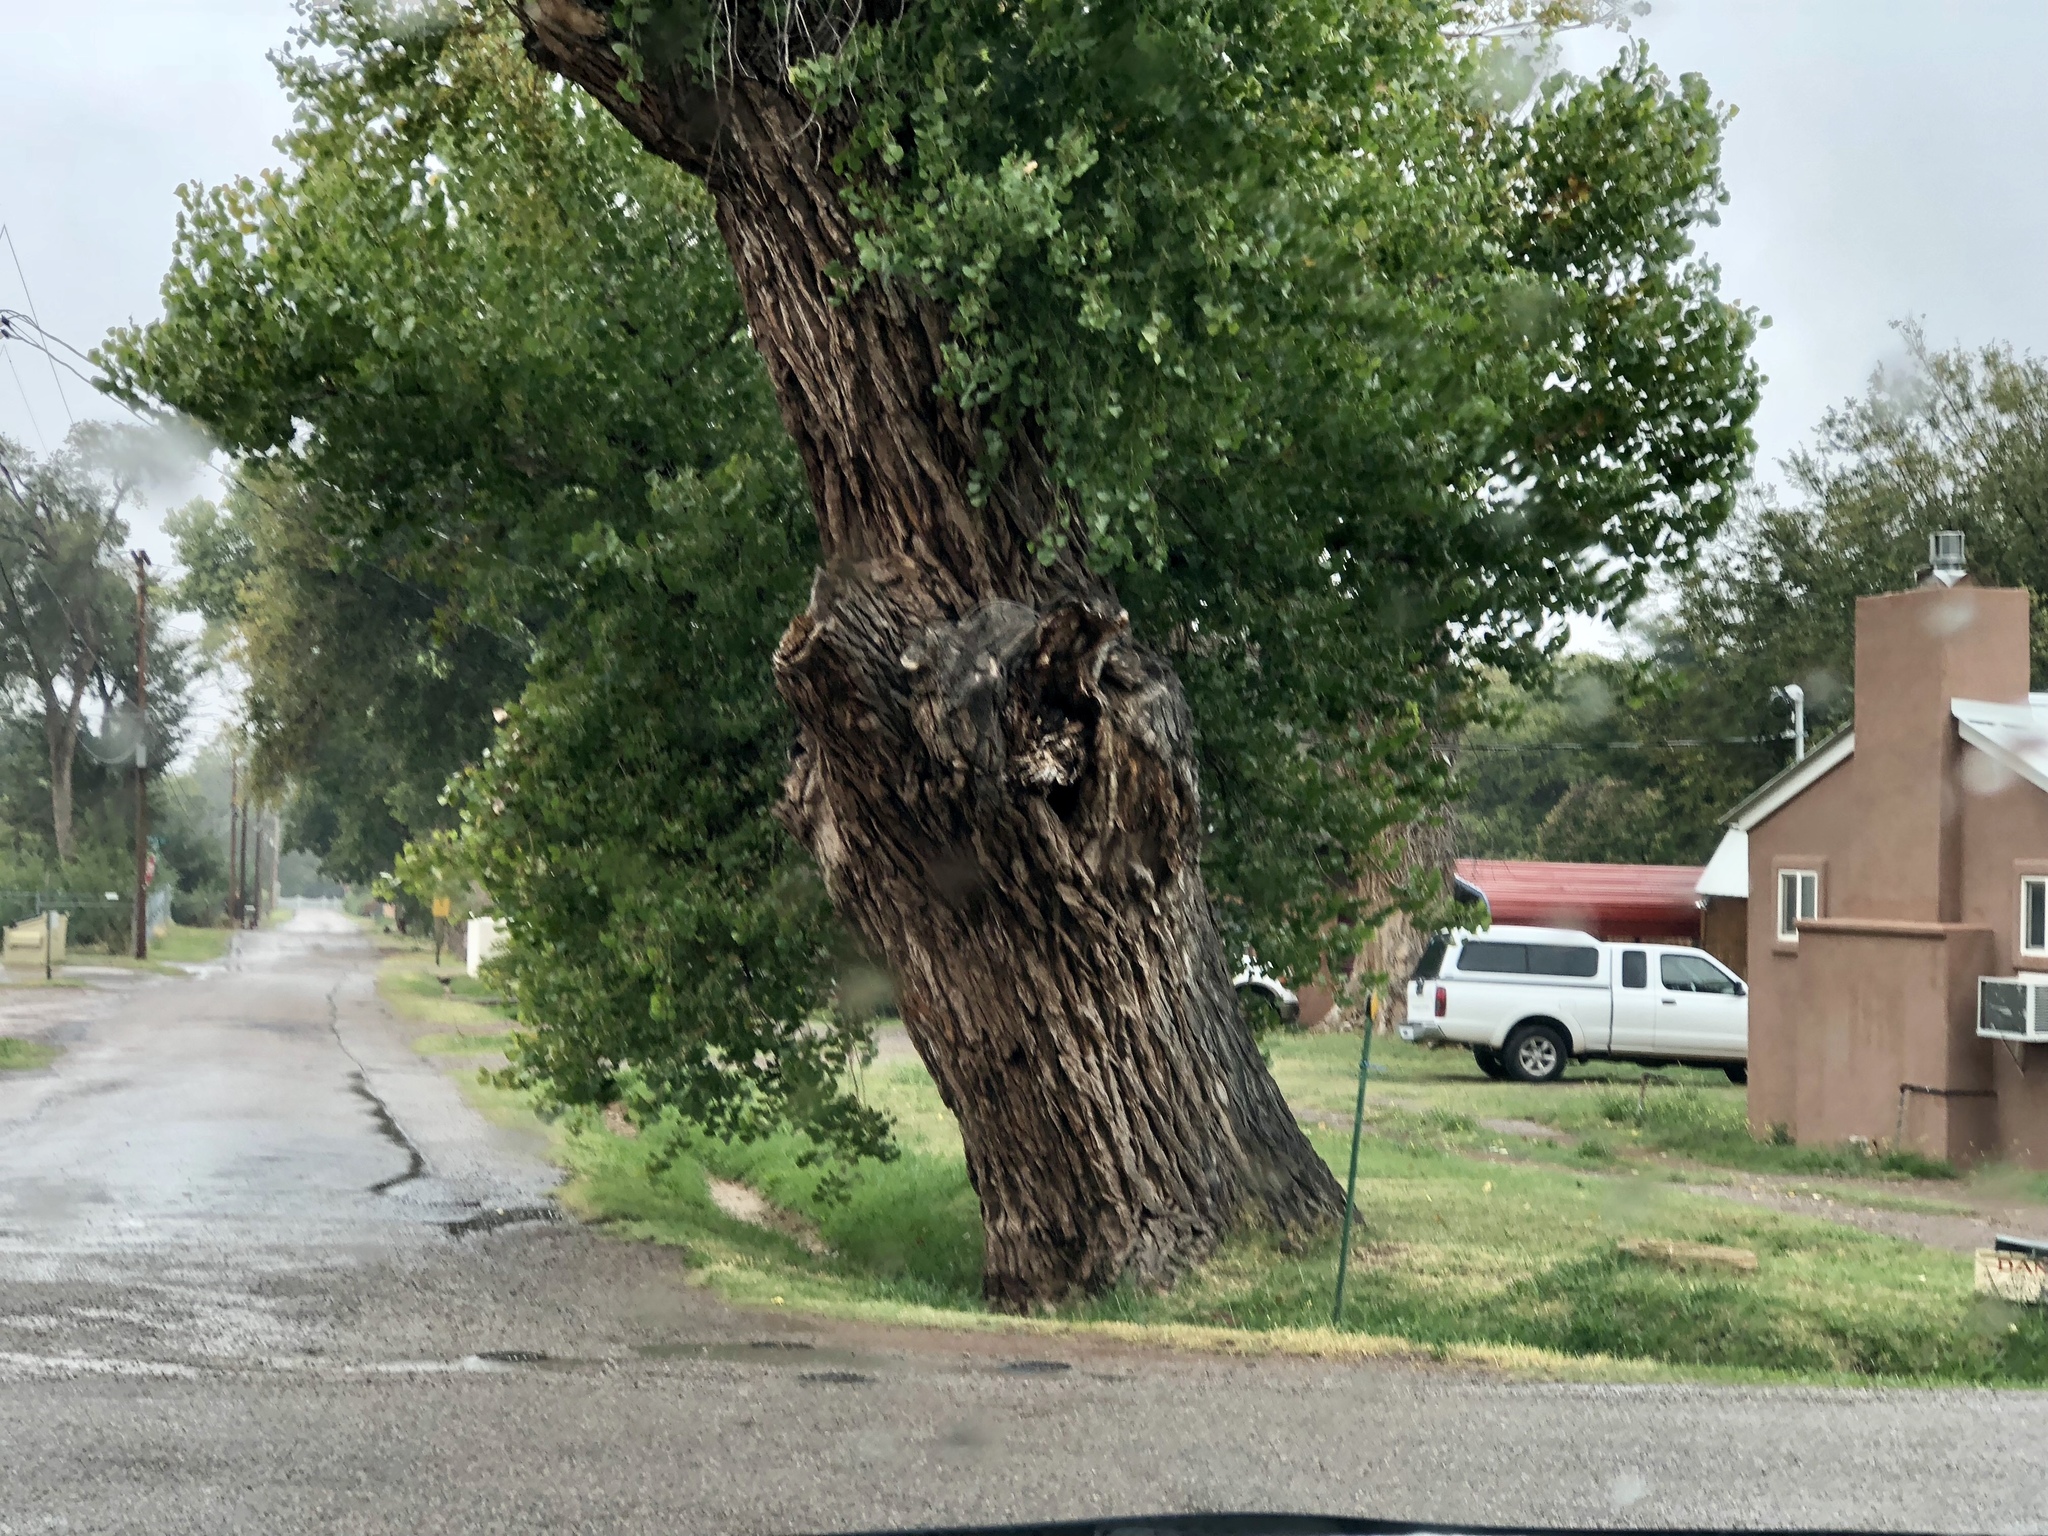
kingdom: Plantae
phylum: Tracheophyta
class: Magnoliopsida
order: Malpighiales
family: Salicaceae
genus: Populus
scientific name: Populus fremontii
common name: Fremont's cottonwood
